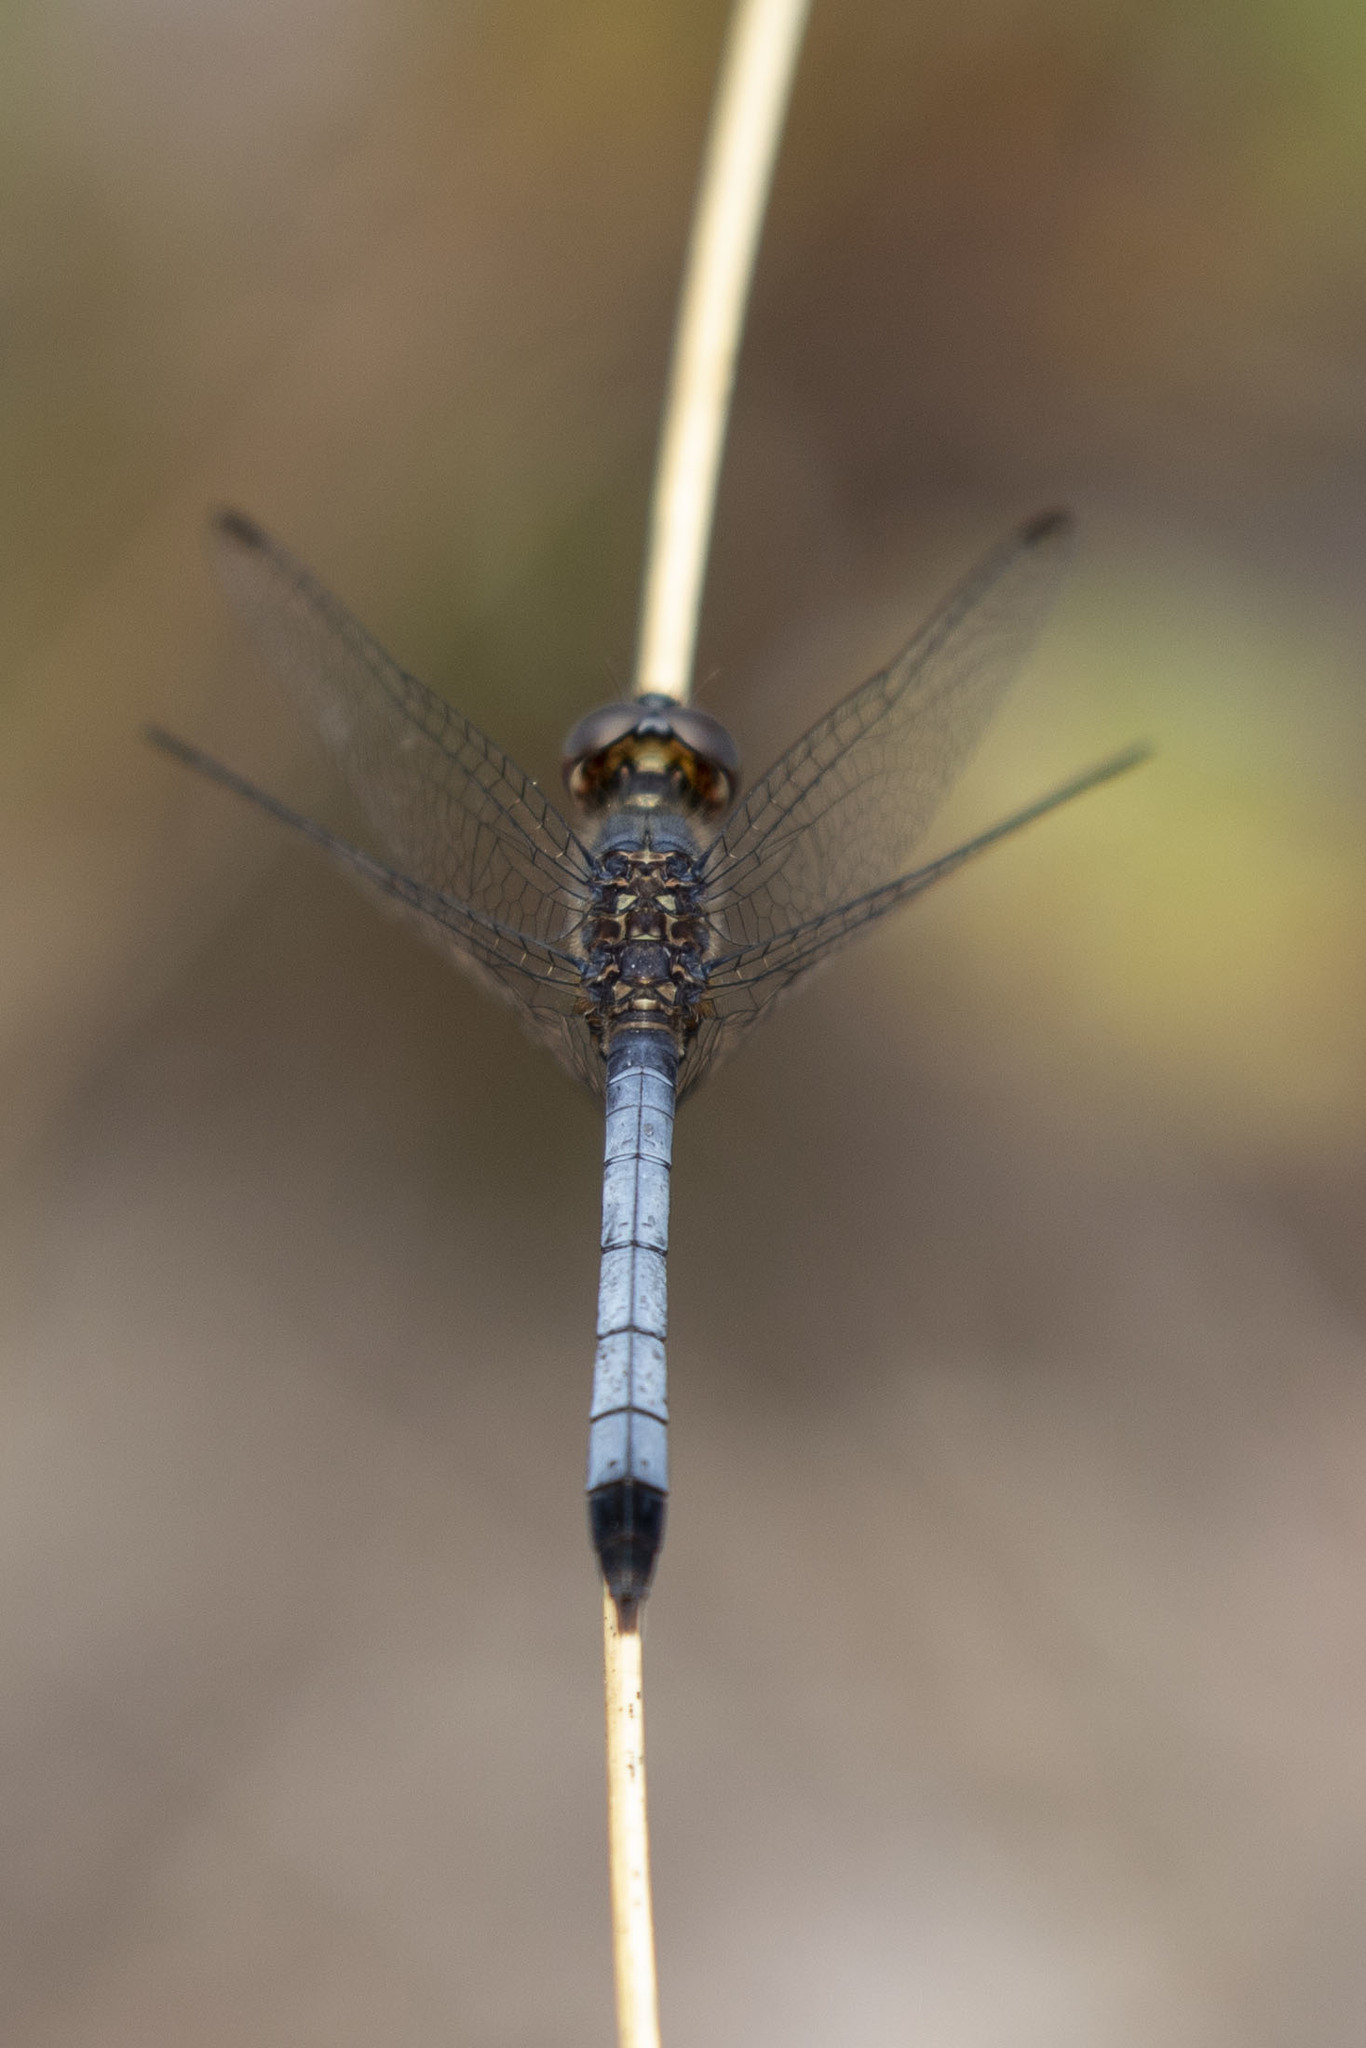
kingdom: Animalia
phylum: Arthropoda
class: Insecta
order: Odonata
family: Libellulidae
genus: Erythrodiplax
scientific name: Erythrodiplax minuscula
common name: Little blue dragonlet
